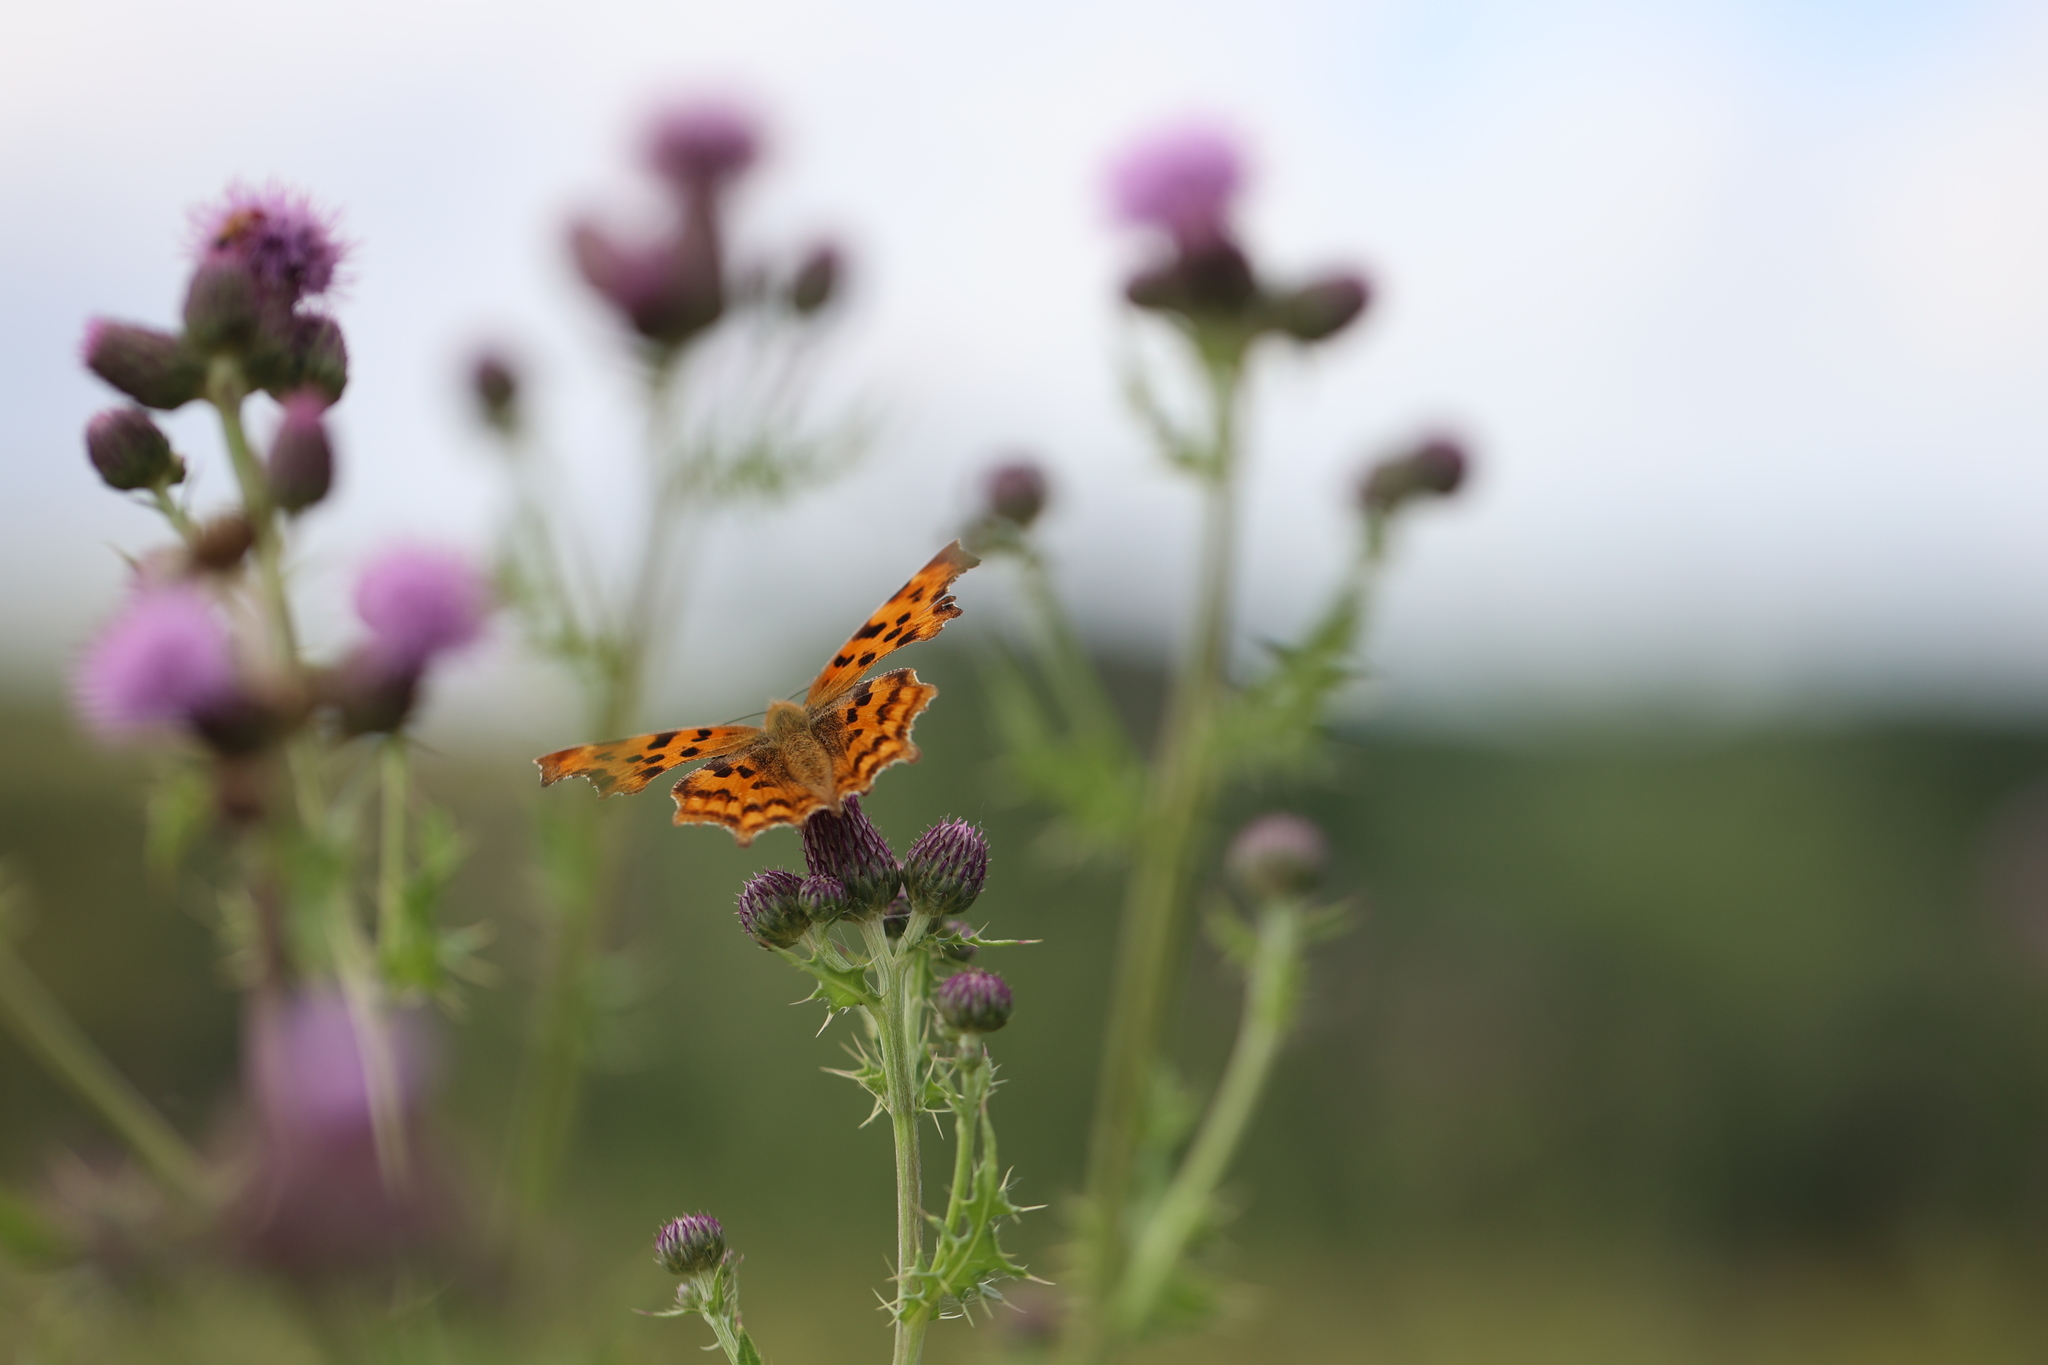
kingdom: Animalia
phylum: Arthropoda
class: Insecta
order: Lepidoptera
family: Nymphalidae
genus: Polygonia
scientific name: Polygonia c-album
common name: Comma
